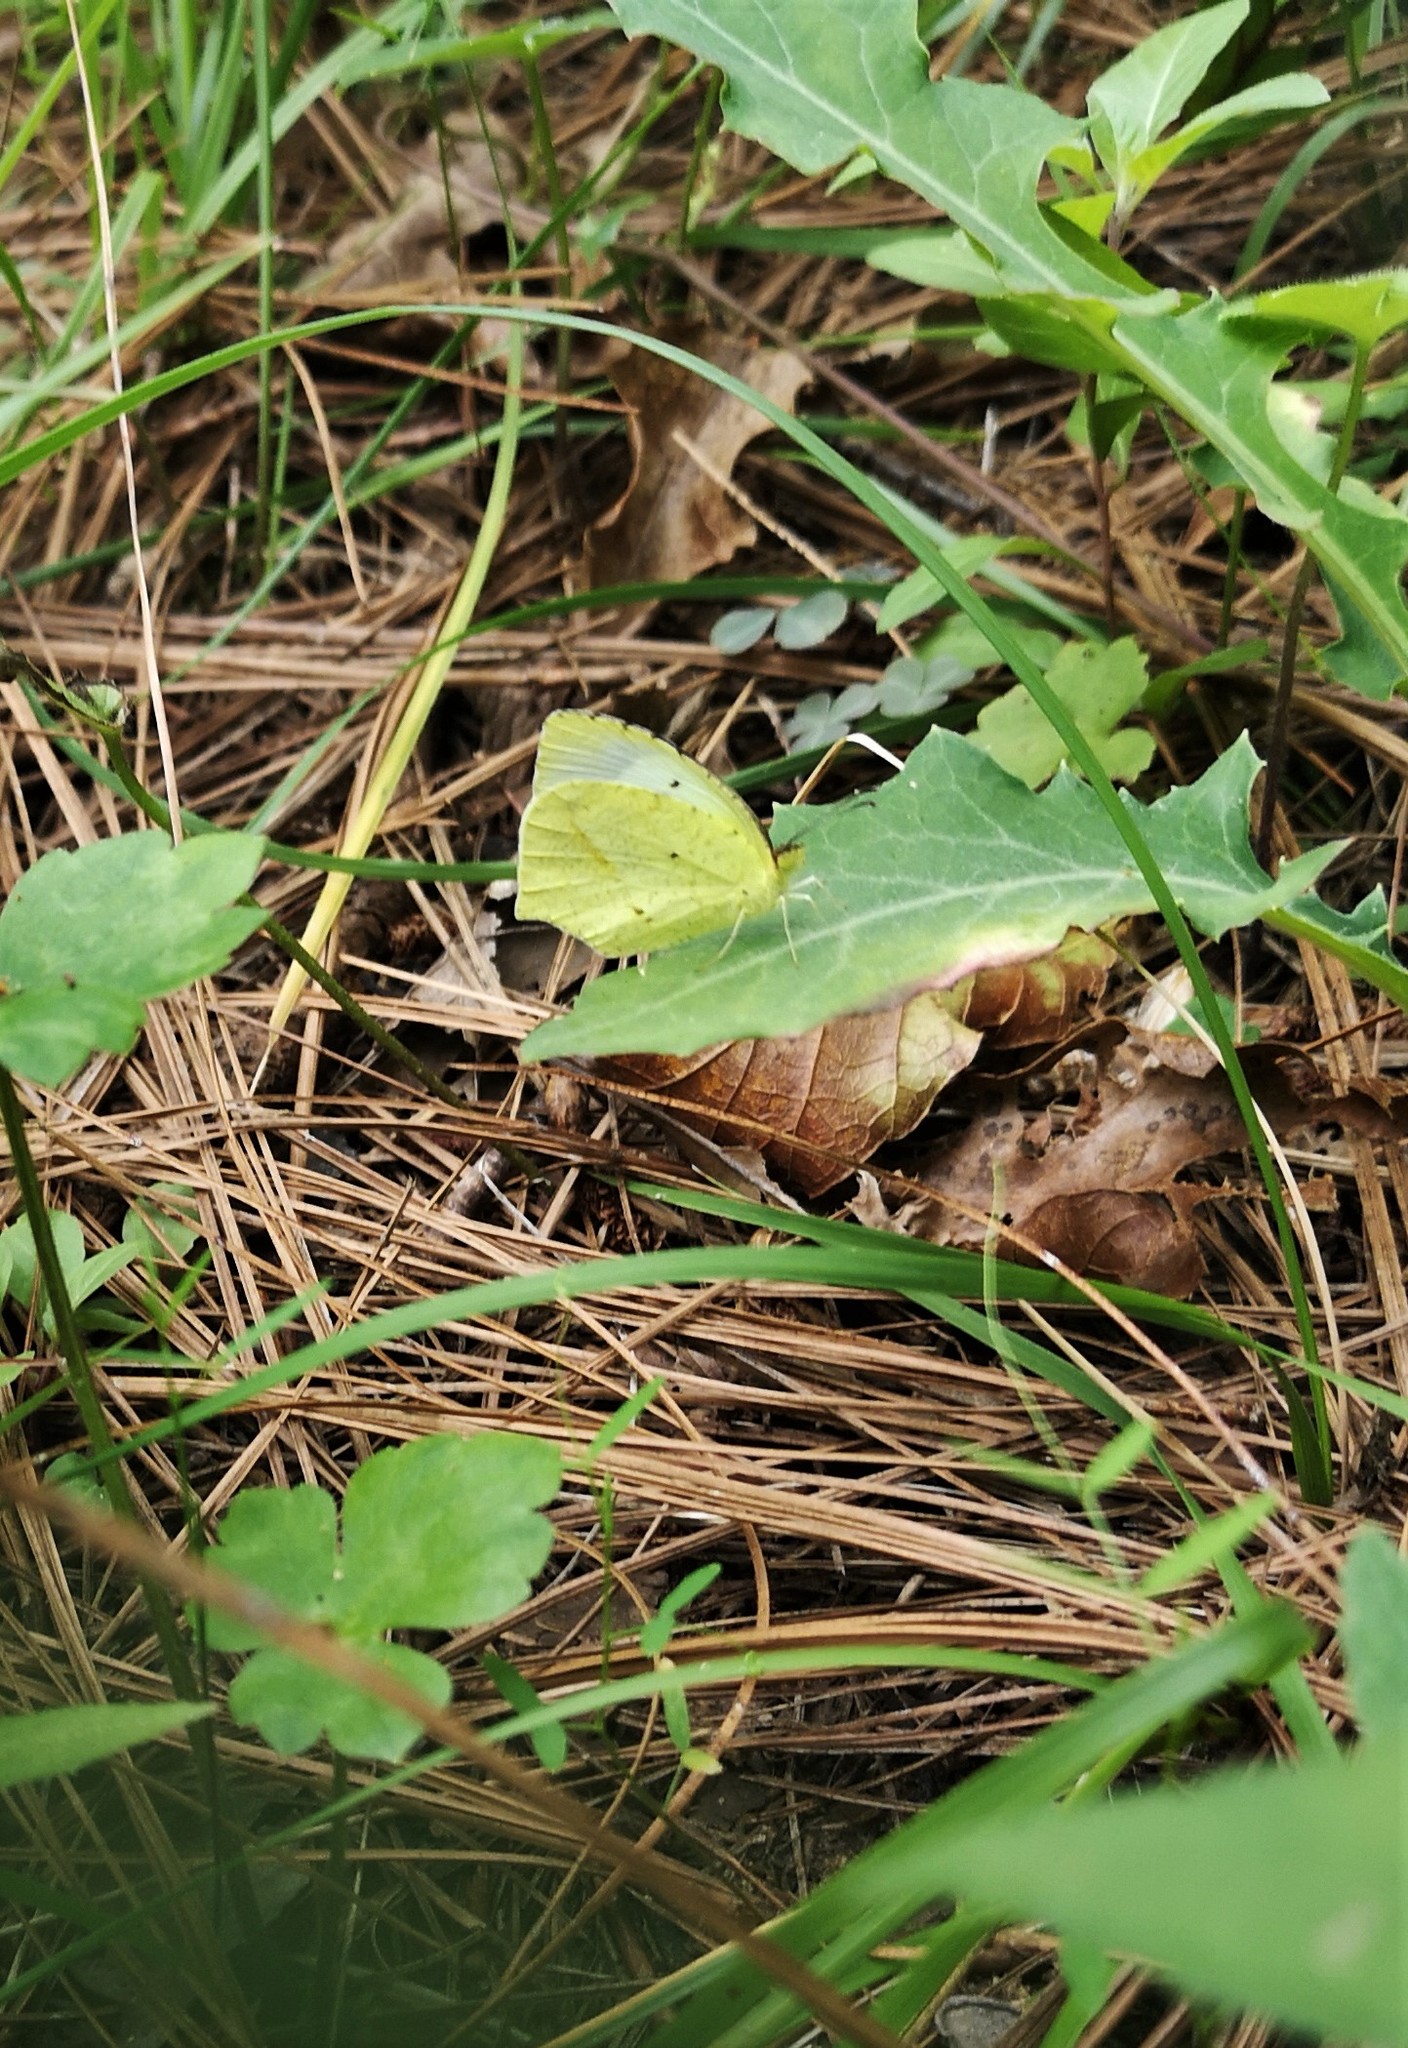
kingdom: Animalia
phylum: Arthropoda
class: Insecta
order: Lepidoptera
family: Pieridae
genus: Abaeis
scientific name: Abaeis mexicana
